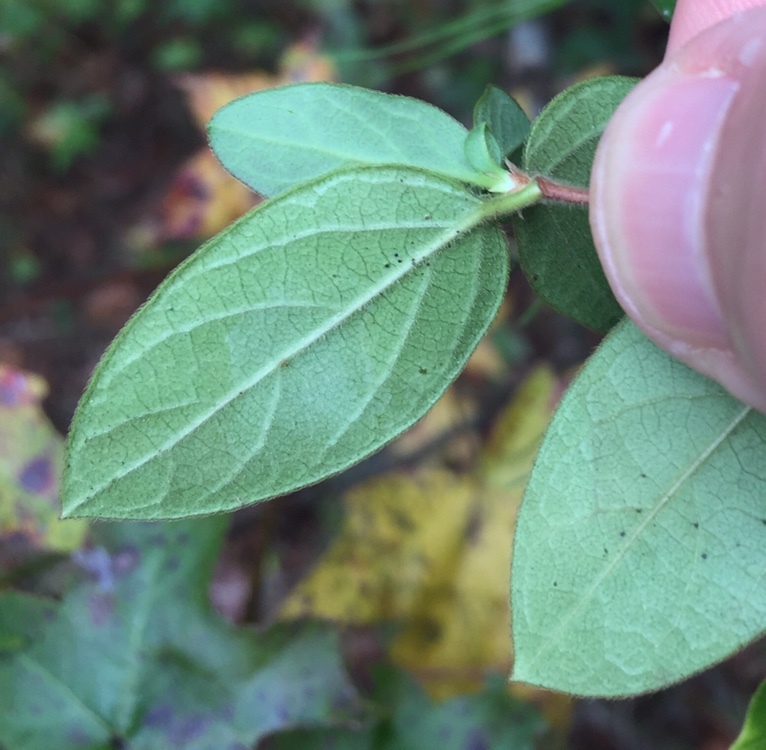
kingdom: Plantae
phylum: Tracheophyta
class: Magnoliopsida
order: Dipsacales
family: Caprifoliaceae
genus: Lonicera
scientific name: Lonicera japonica
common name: Japanese honeysuckle
